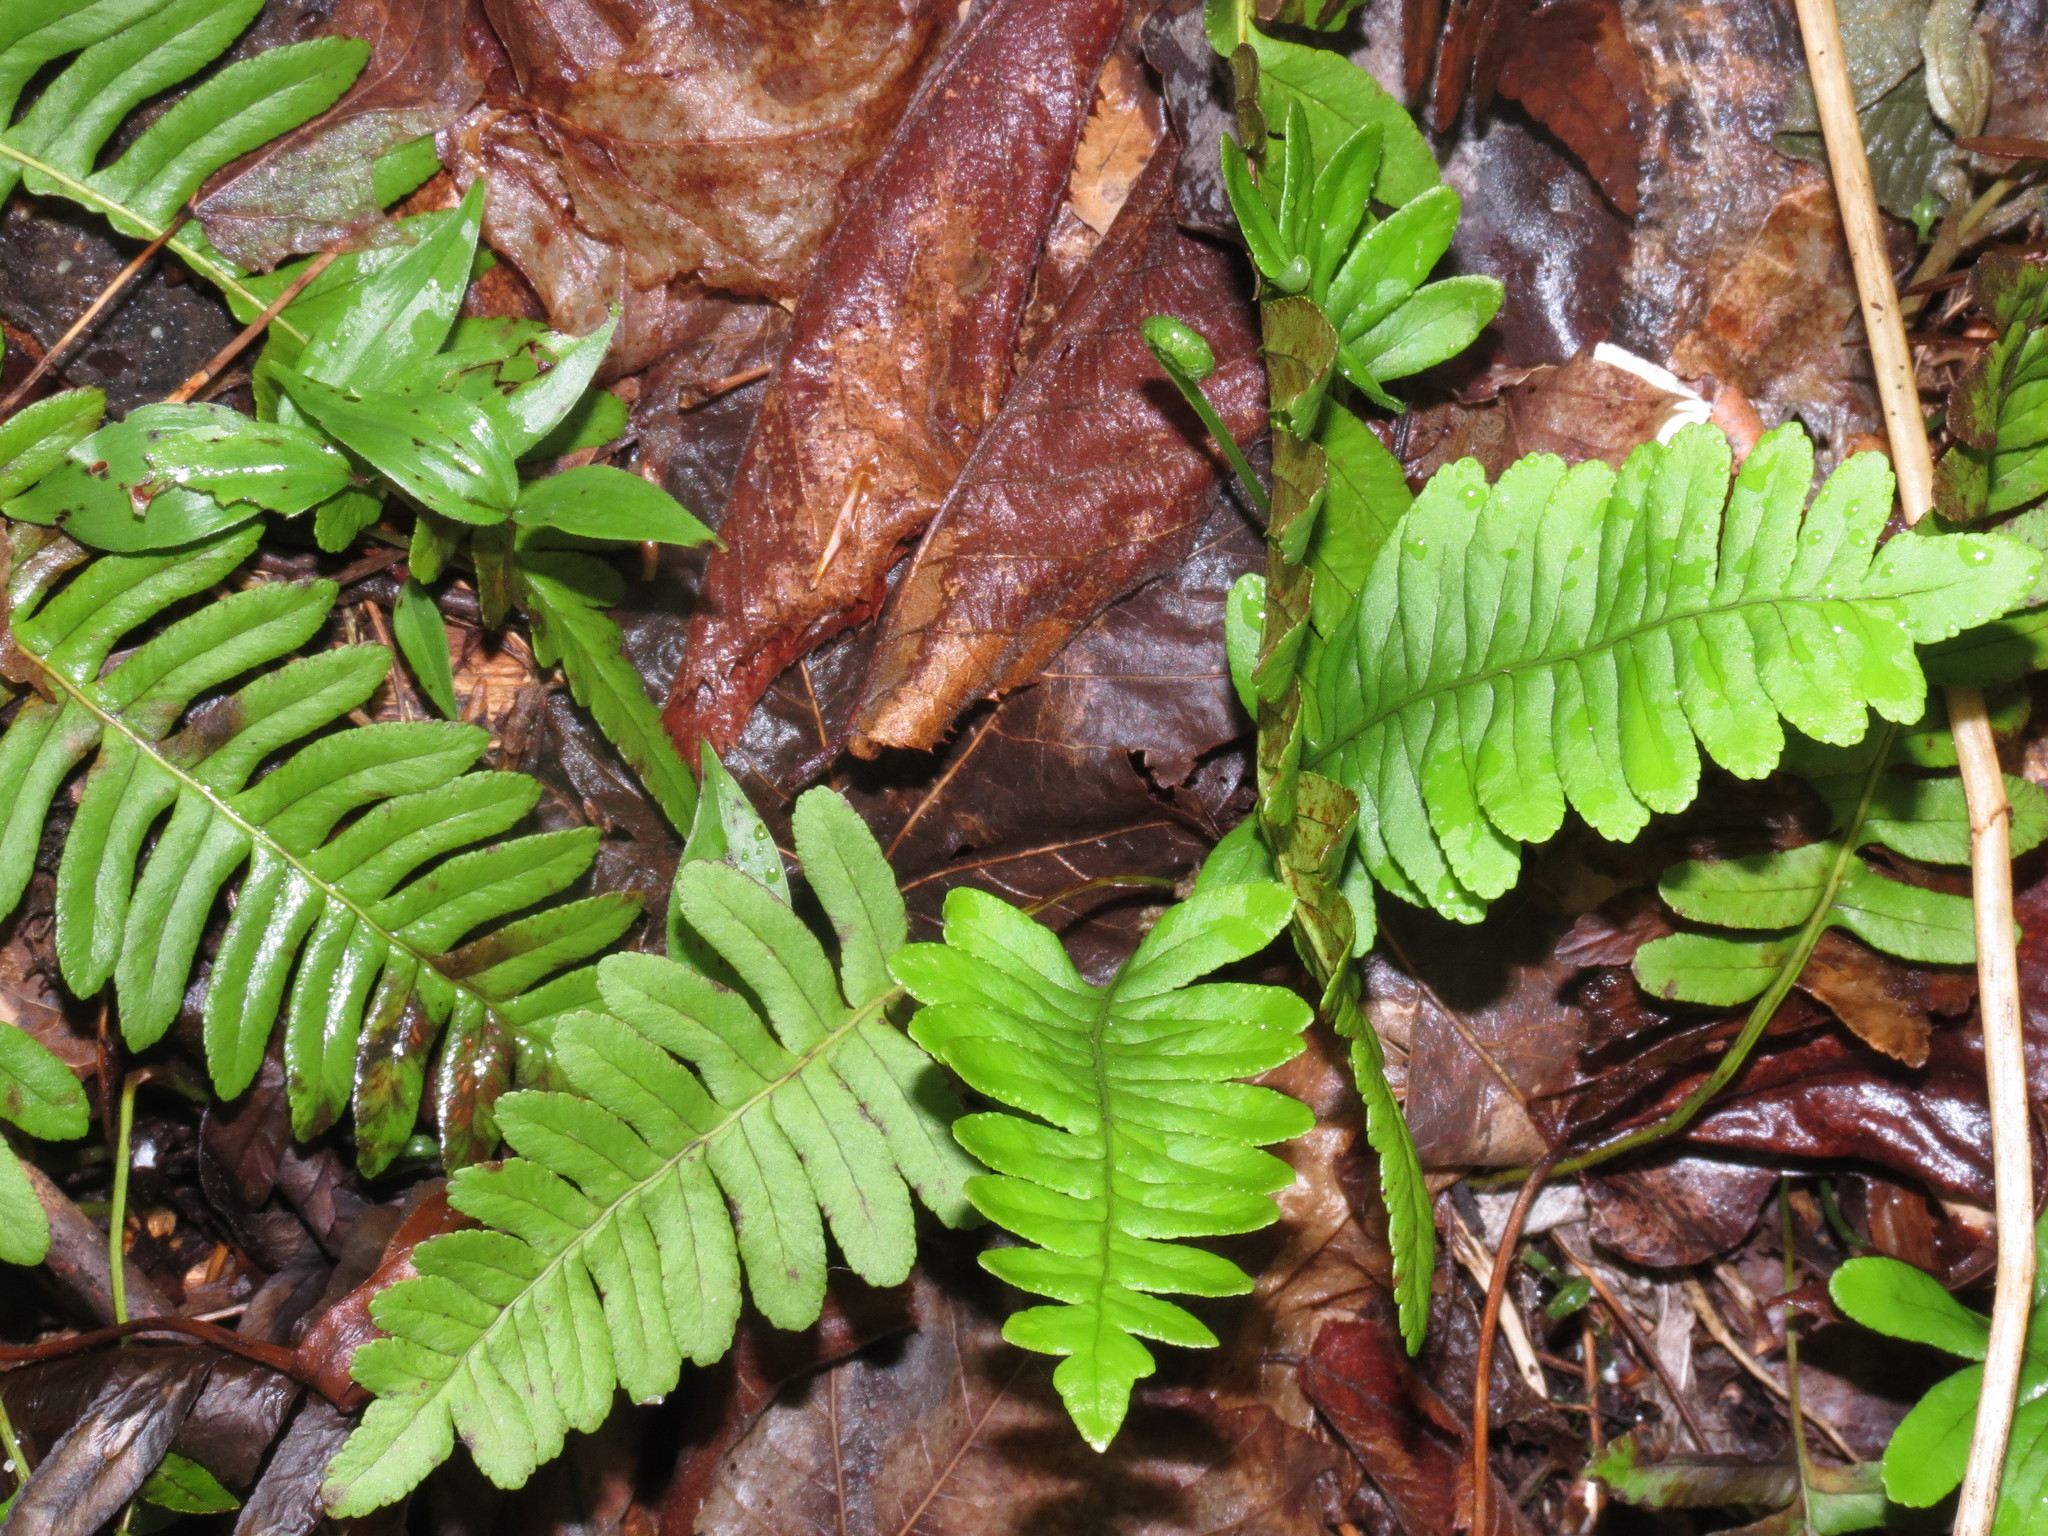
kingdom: Plantae
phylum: Tracheophyta
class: Polypodiopsida
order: Polypodiales
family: Polypodiaceae
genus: Polypodium
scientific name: Polypodium virginianum
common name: American wall fern
